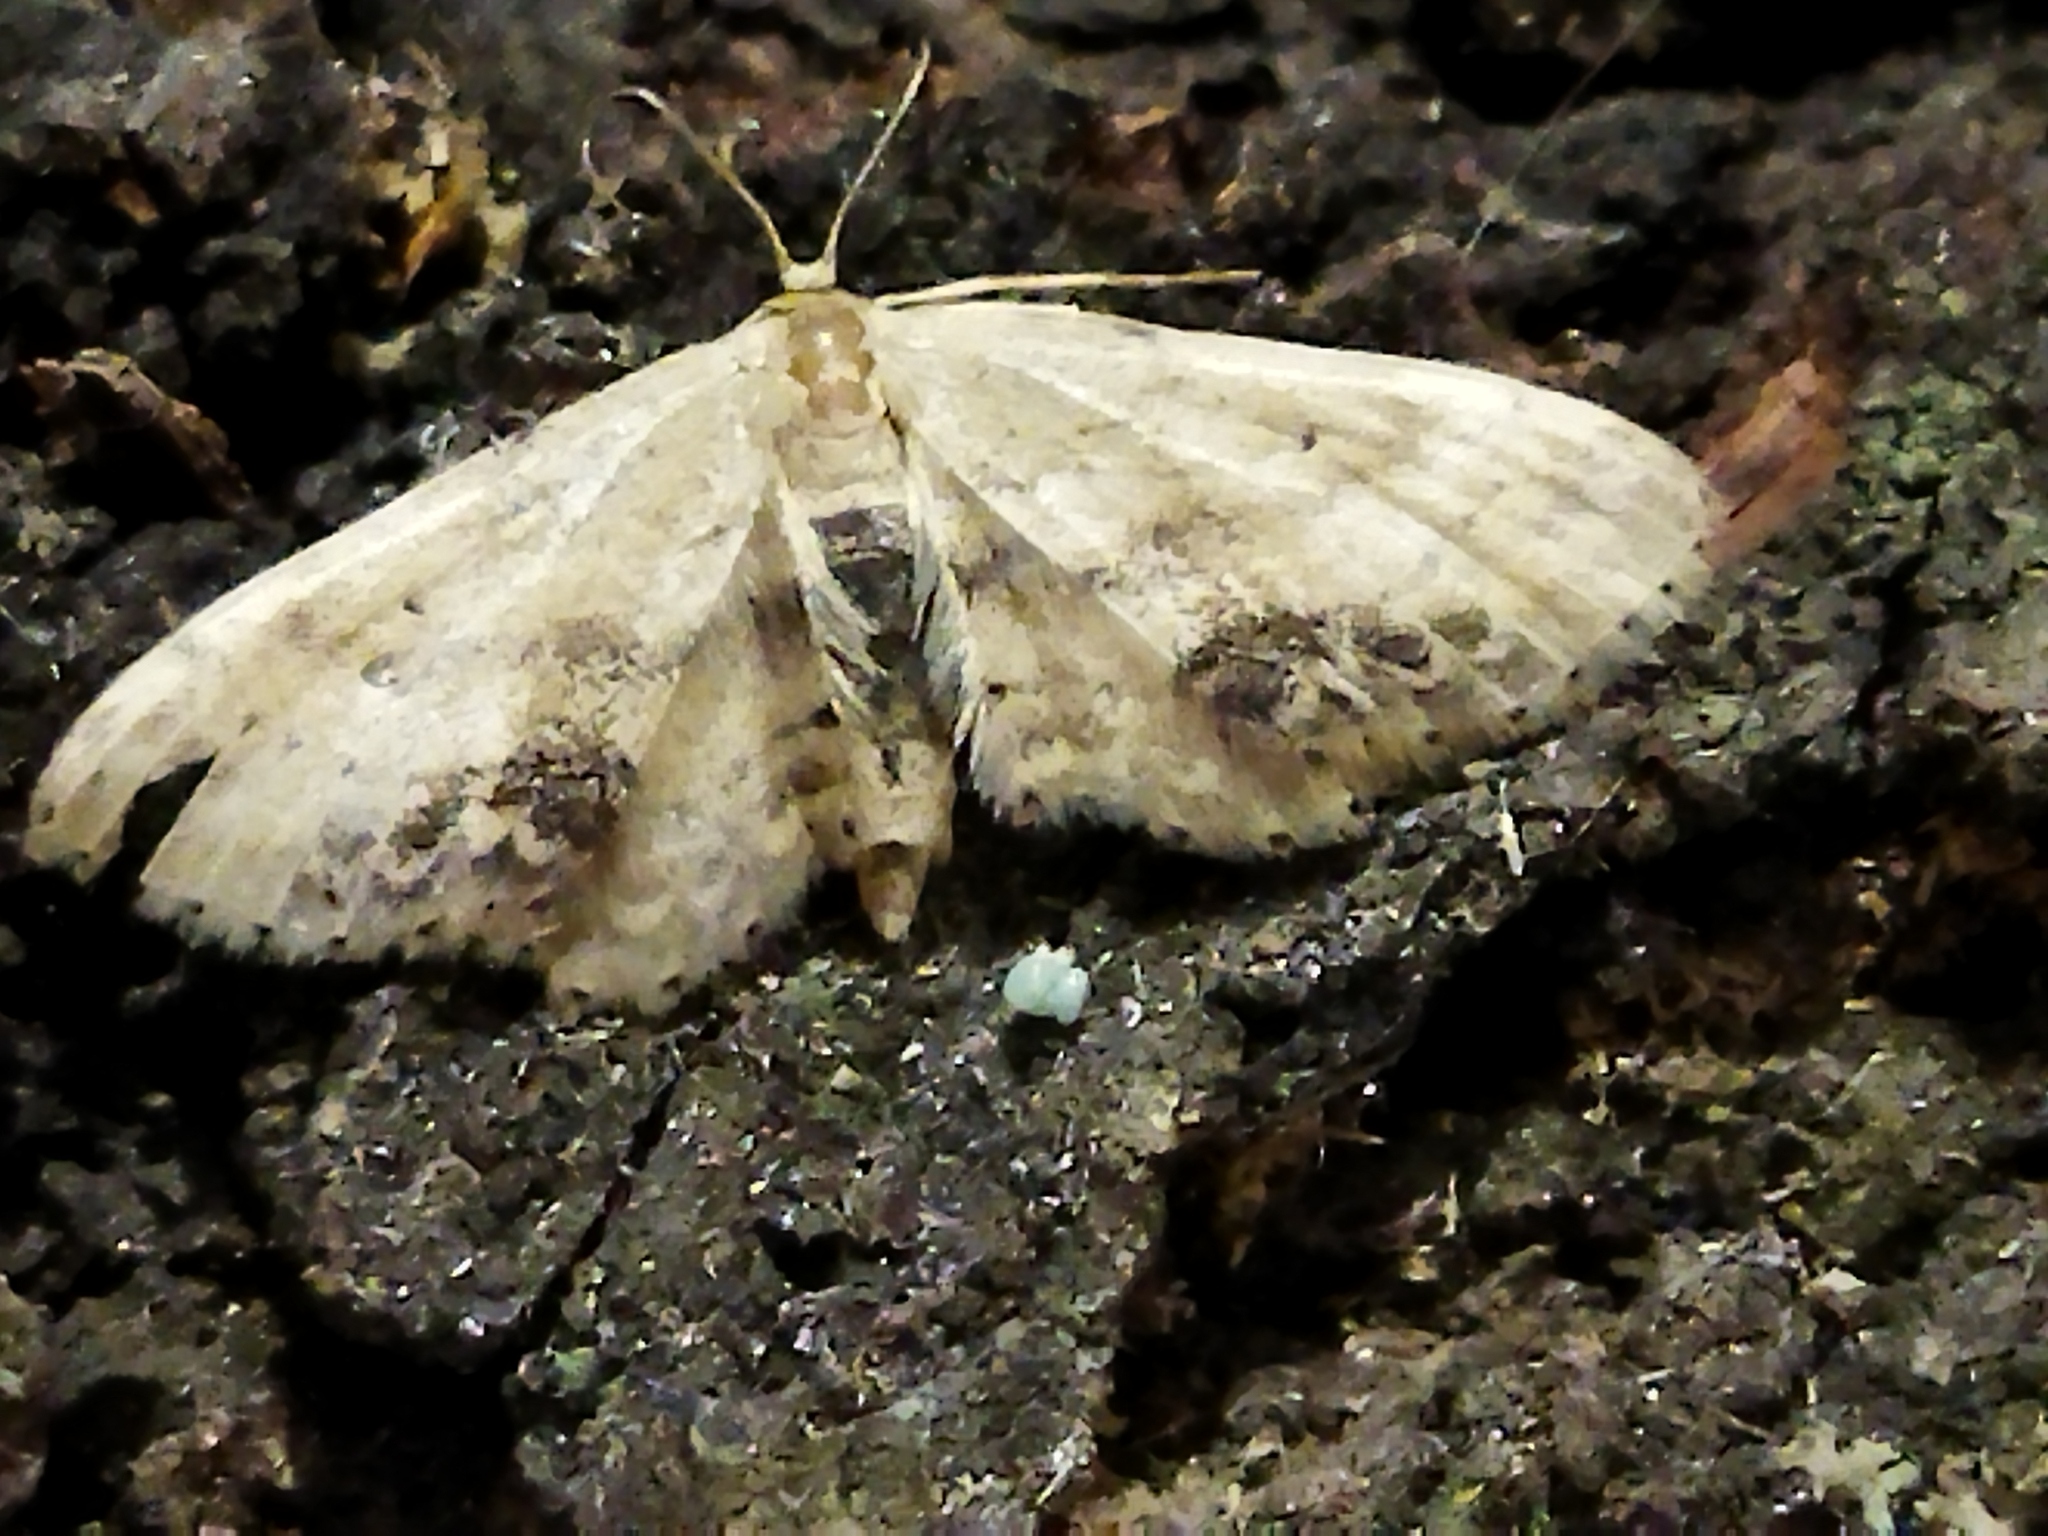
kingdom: Animalia
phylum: Arthropoda
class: Insecta
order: Lepidoptera
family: Geometridae
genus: Idaea
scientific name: Idaea dimidiata
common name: Single-dotted wave
